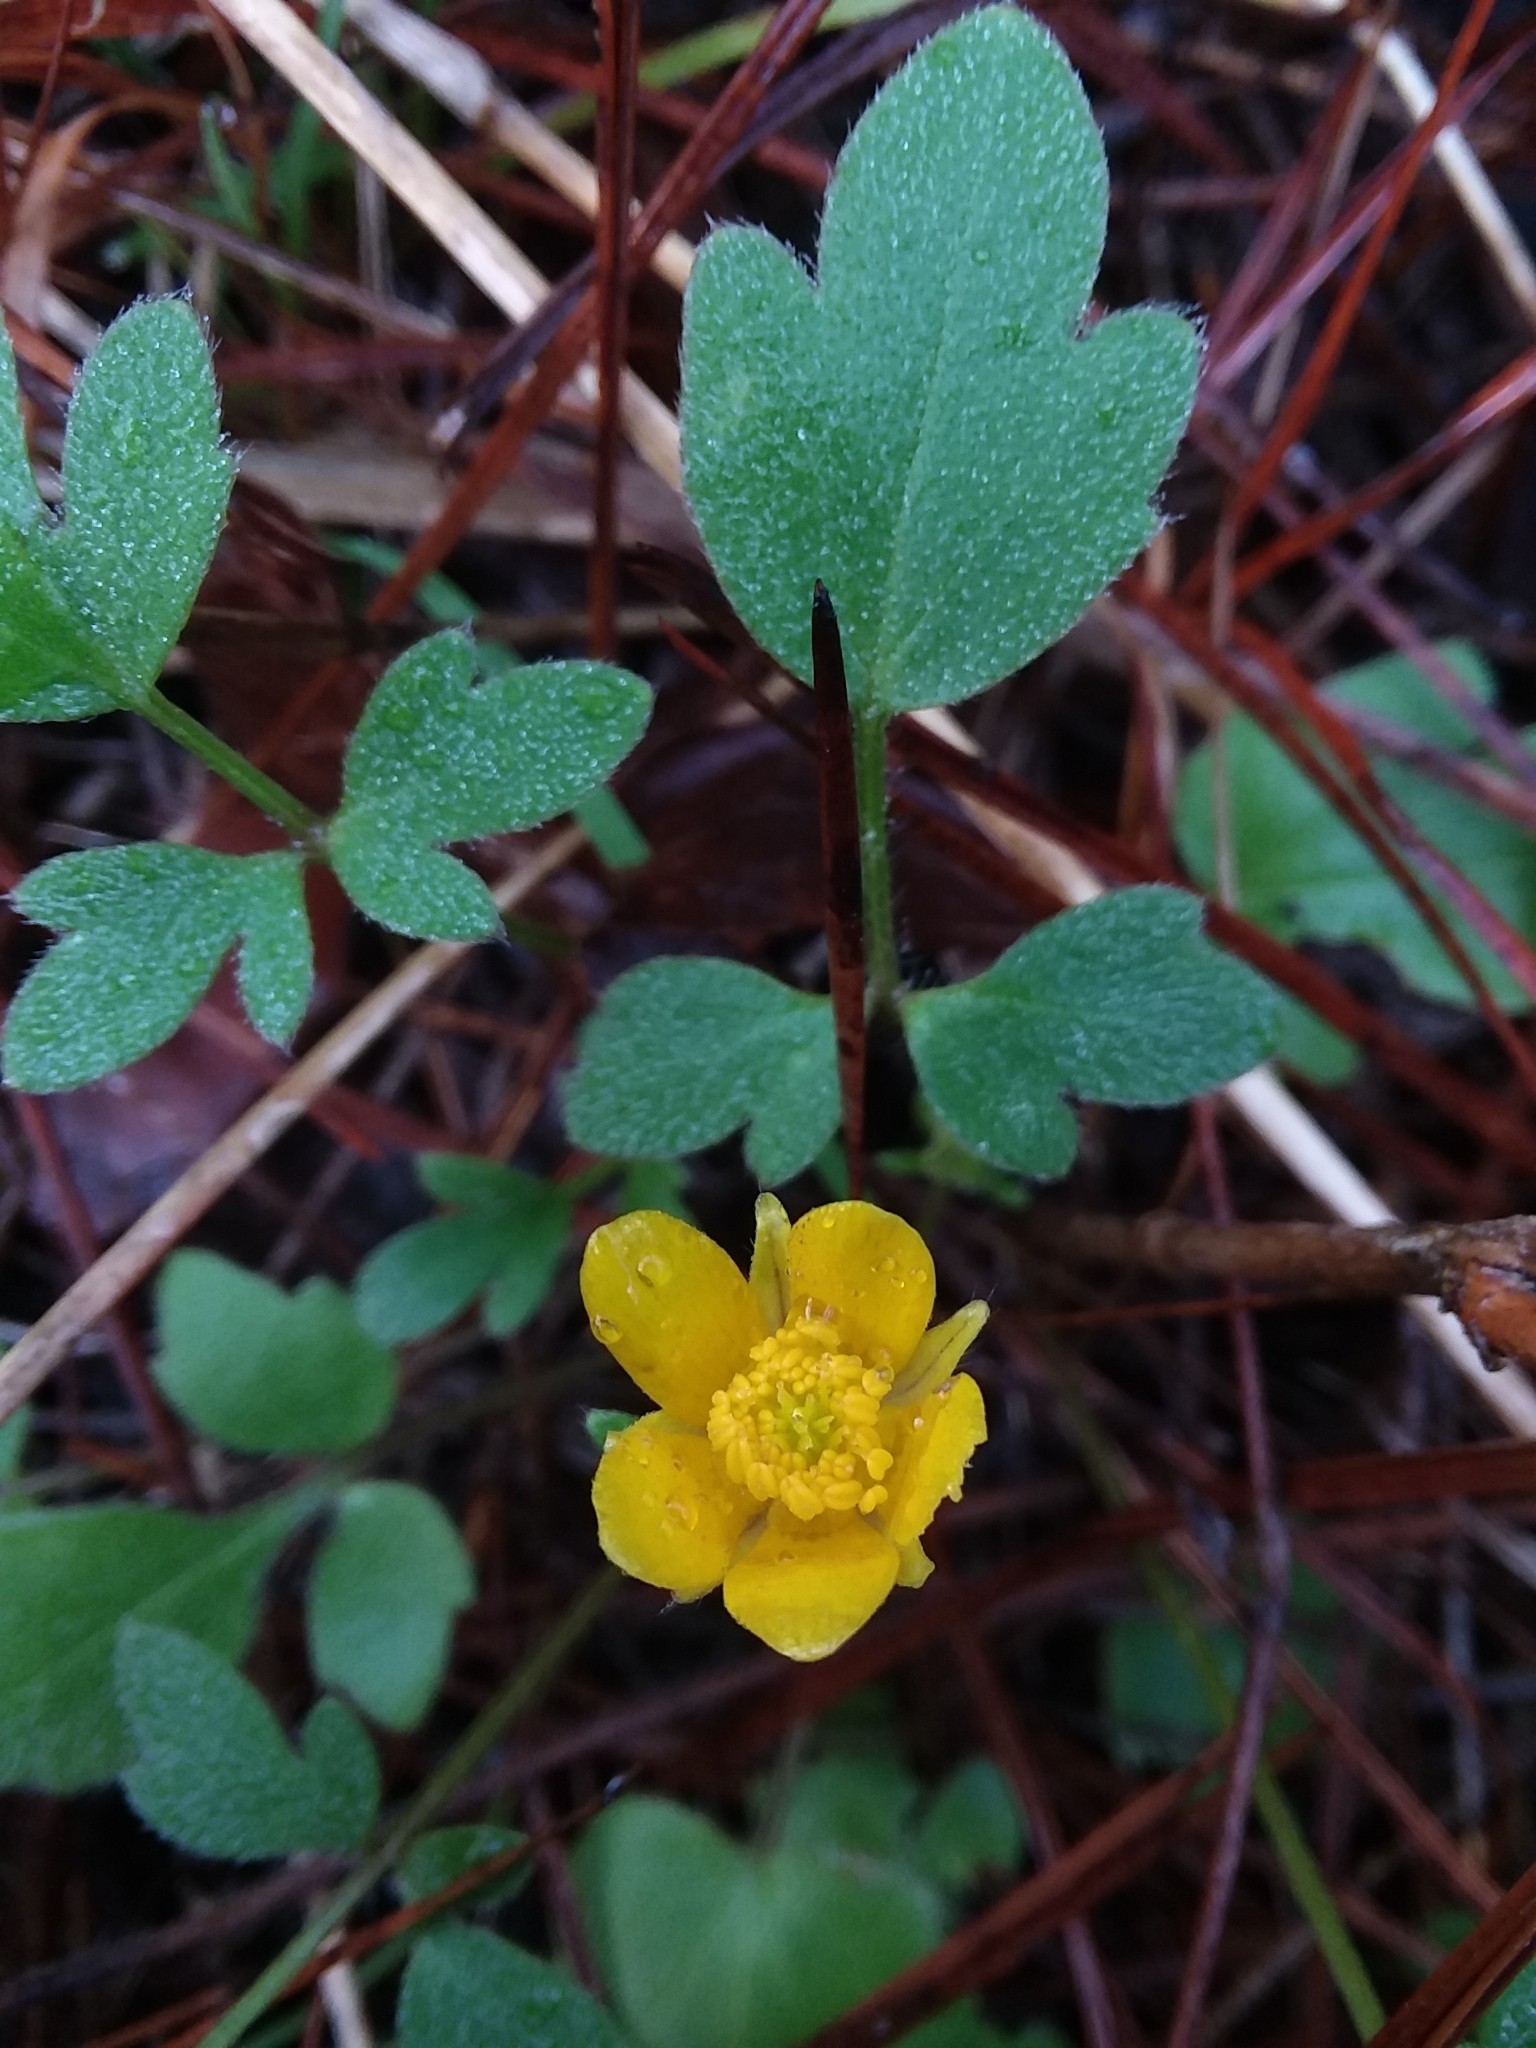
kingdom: Plantae
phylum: Tracheophyta
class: Magnoliopsida
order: Ranunculales
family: Ranunculaceae
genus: Ranunculus
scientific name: Ranunculus fascicularis
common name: Early buttercup
